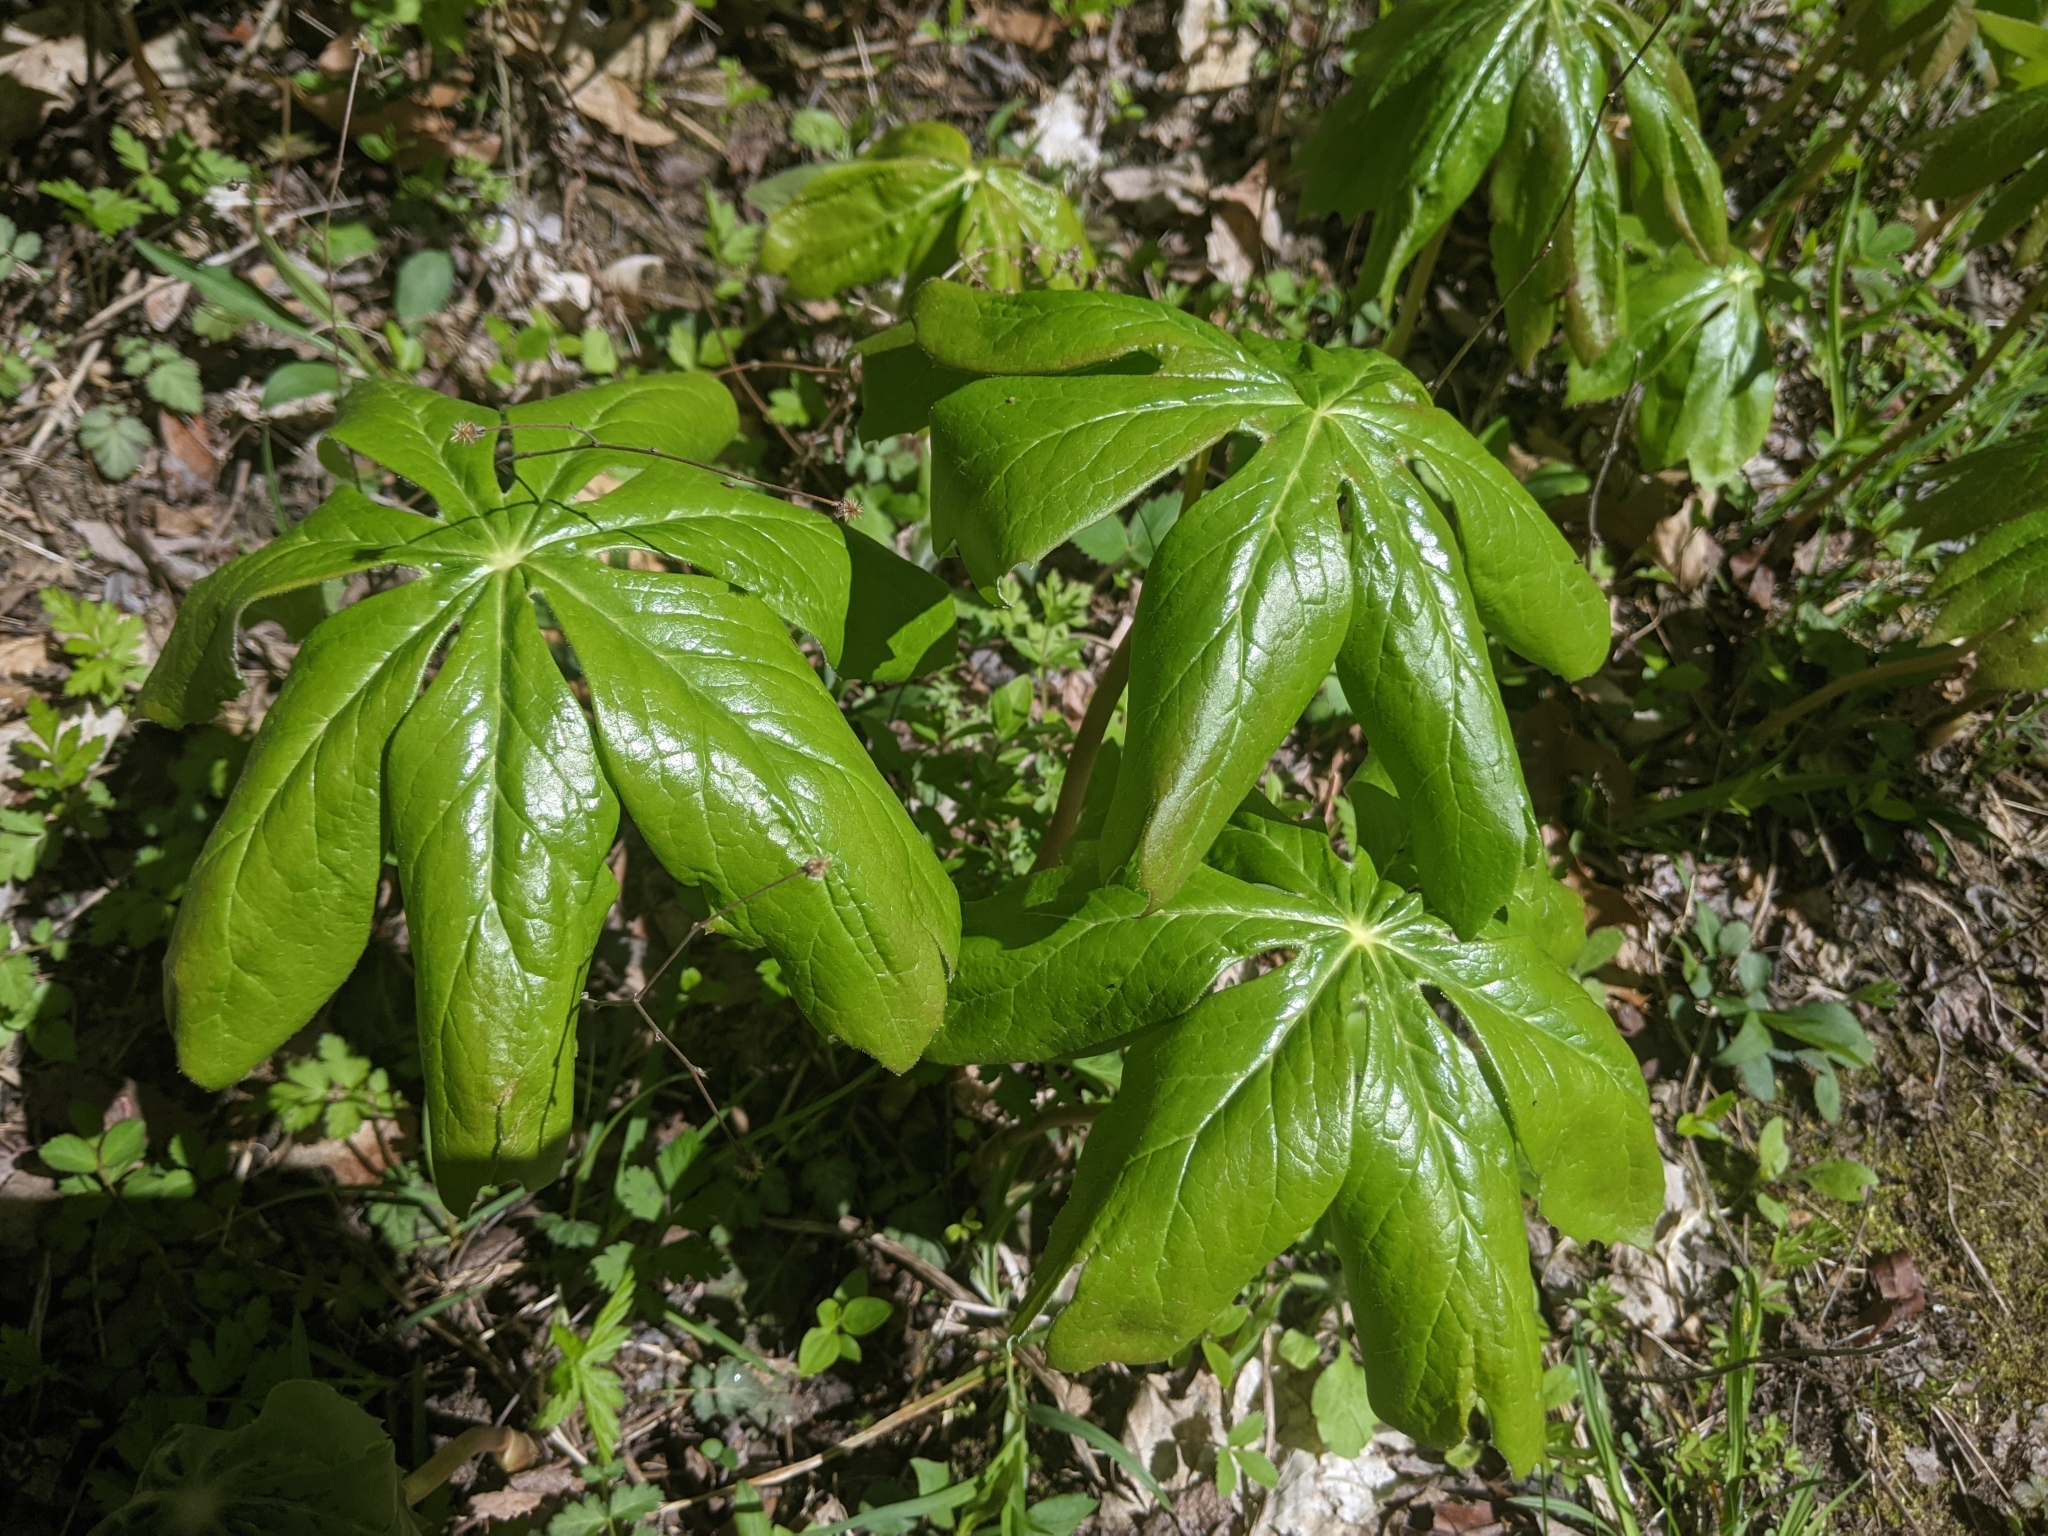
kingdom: Plantae
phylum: Tracheophyta
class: Magnoliopsida
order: Ranunculales
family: Berberidaceae
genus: Podophyllum
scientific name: Podophyllum peltatum
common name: Wild mandrake
